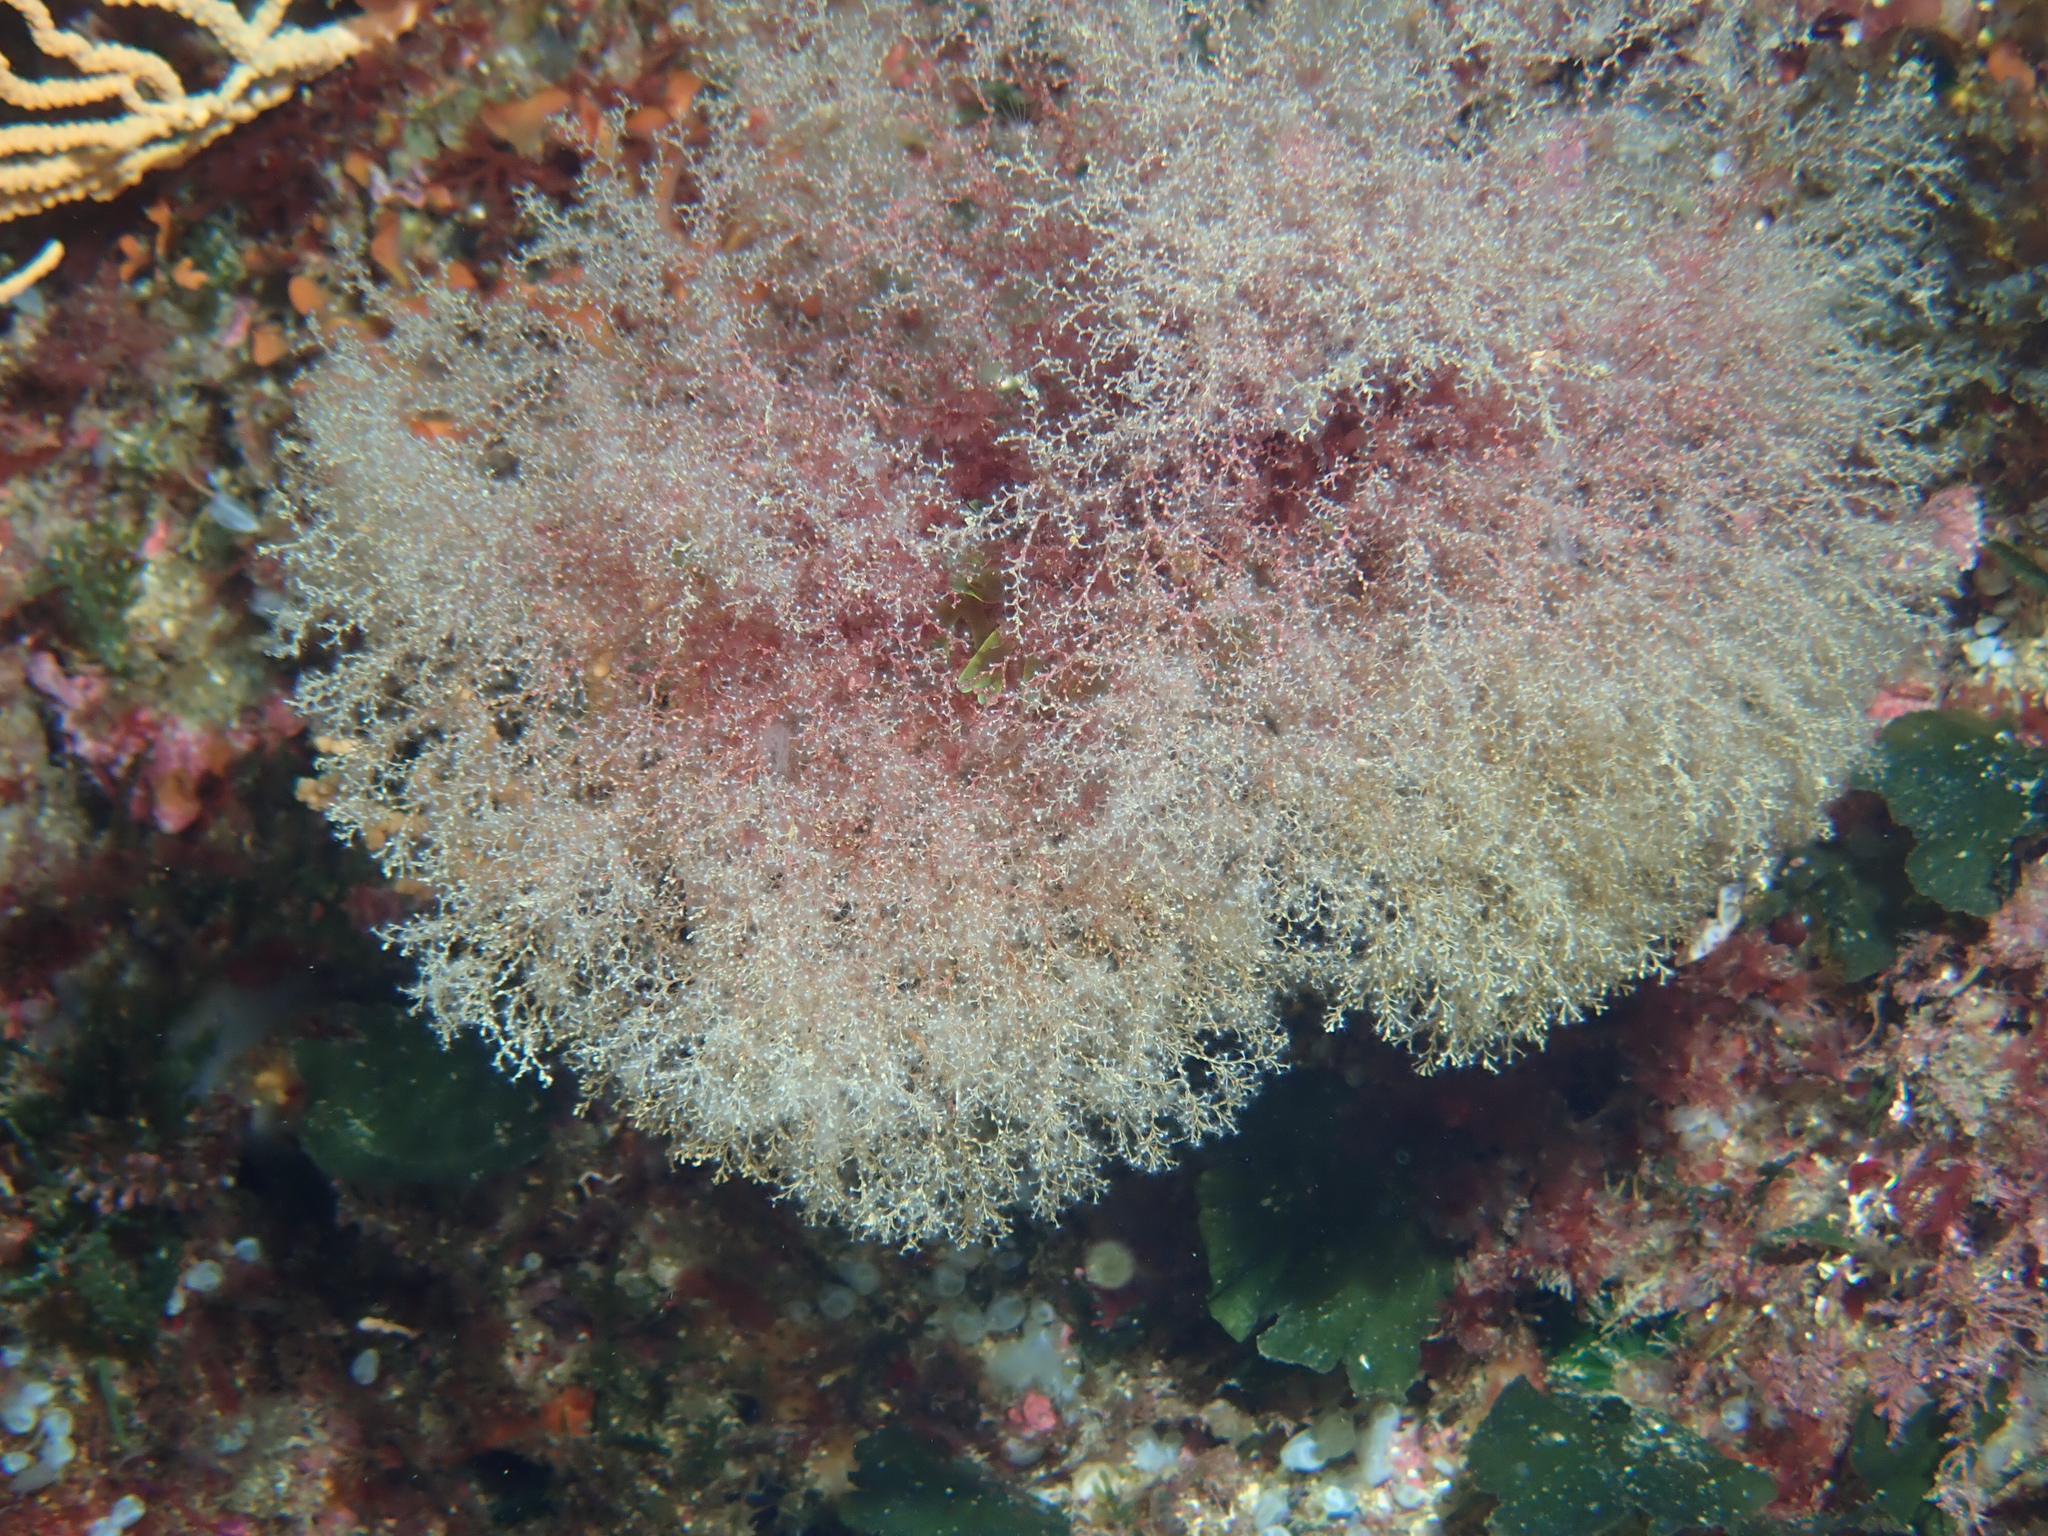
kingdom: Animalia
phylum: Cnidaria
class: Hydrozoa
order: Leptothecata
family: Sertularellidae
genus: Sertularella
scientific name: Sertularella crassicaulis
